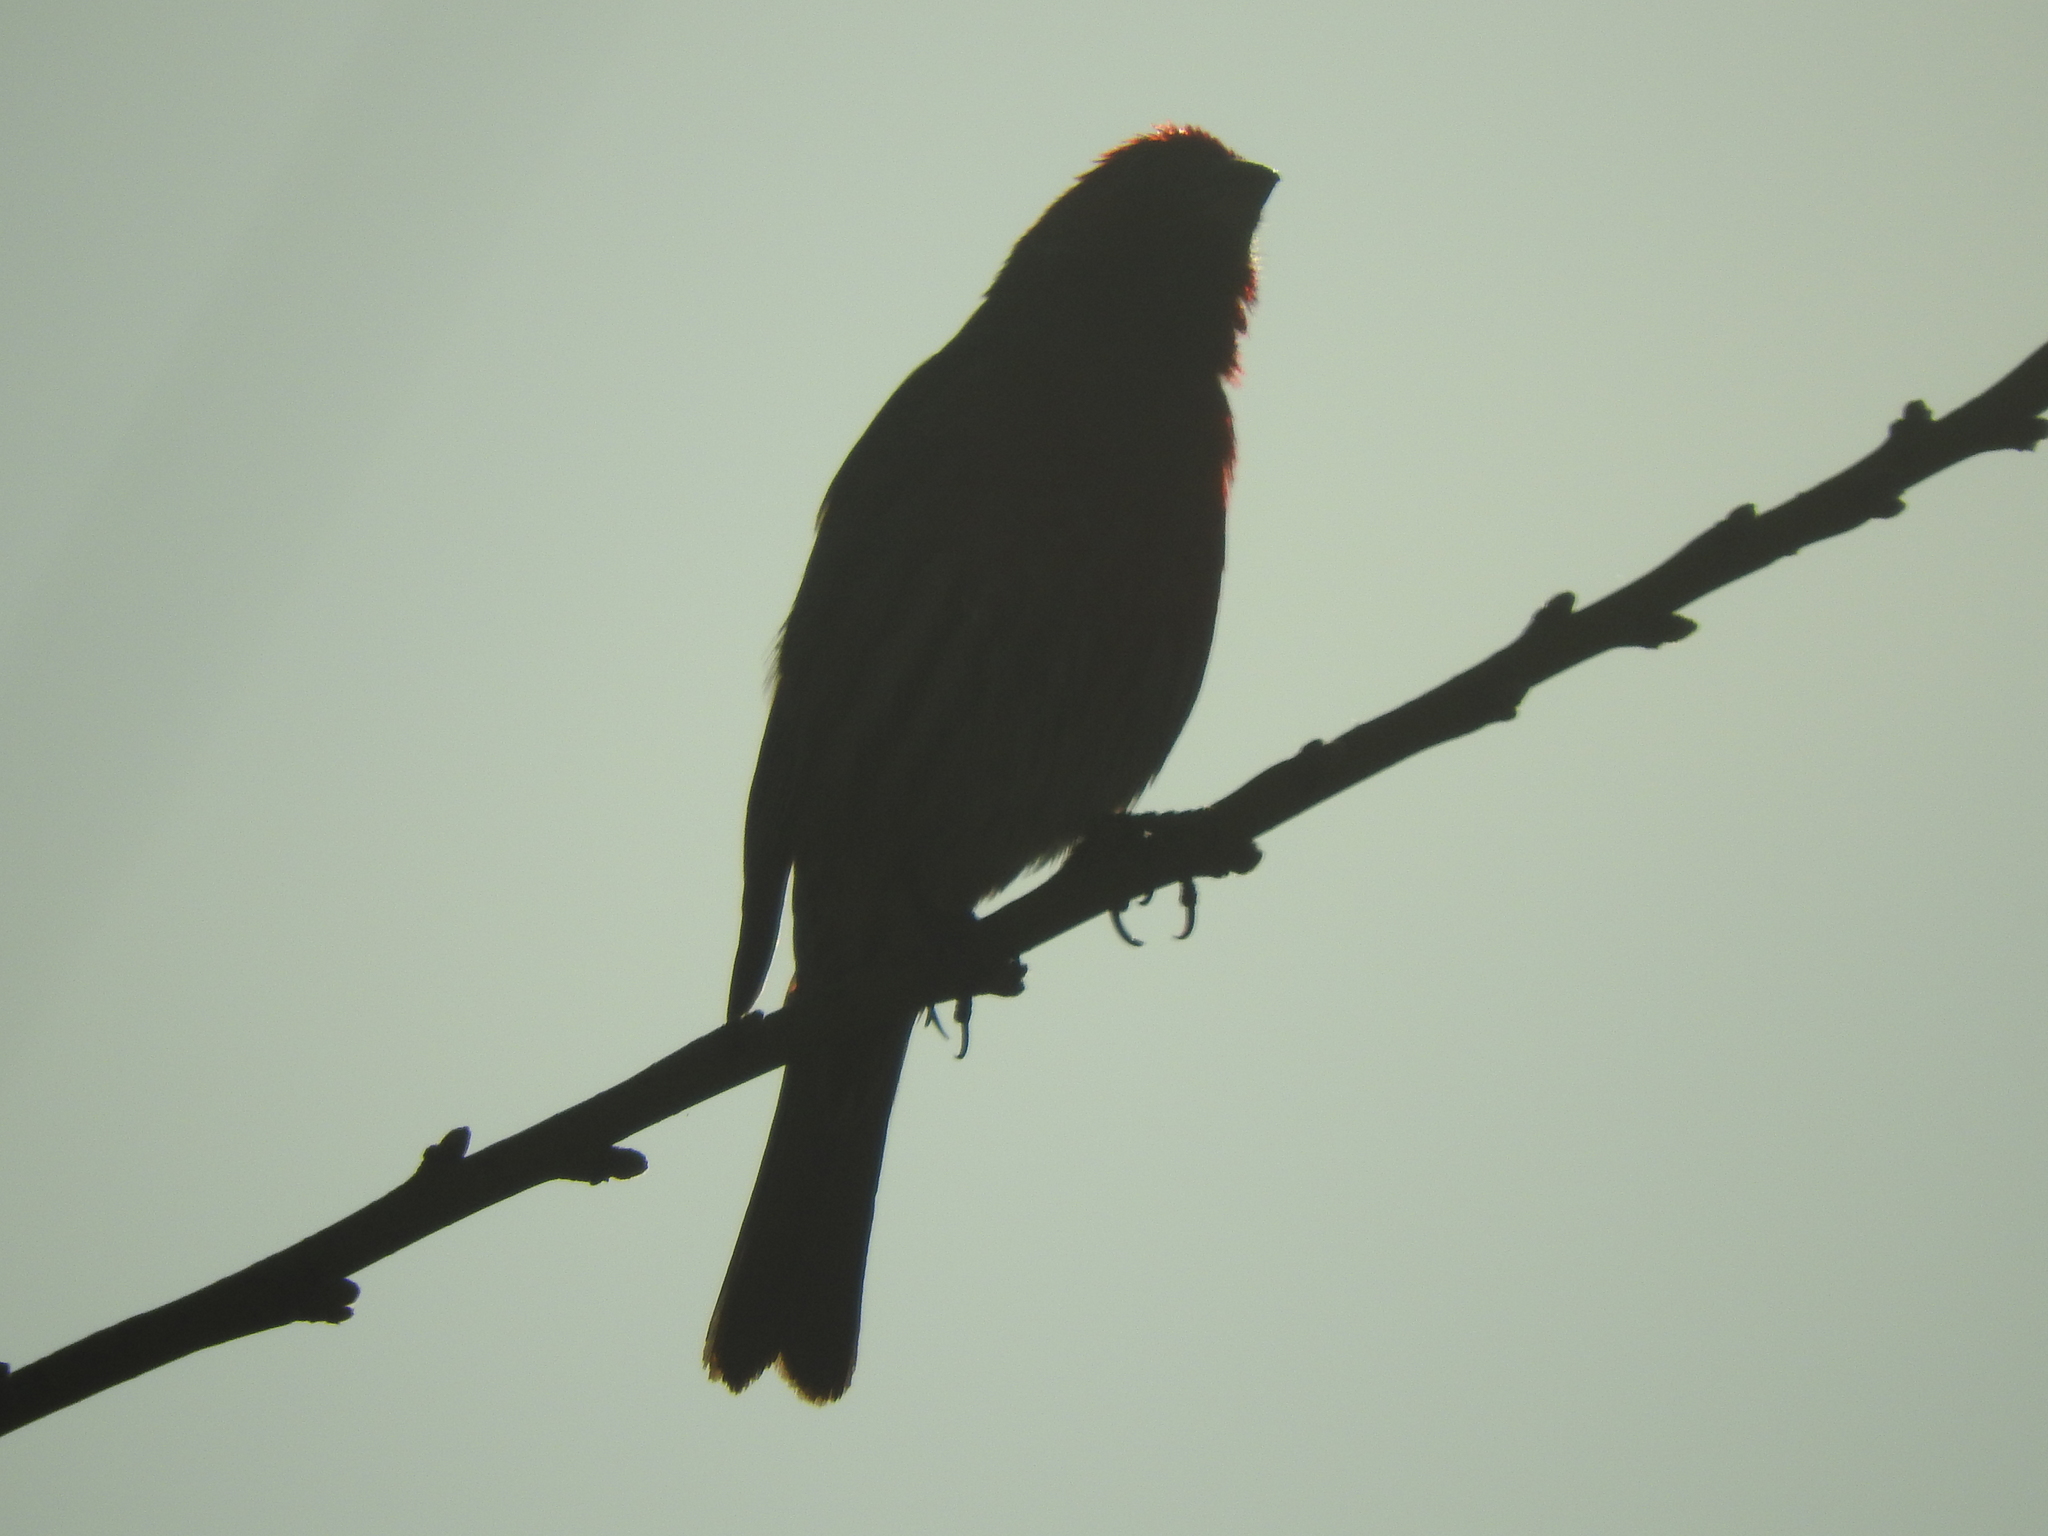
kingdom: Animalia
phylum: Chordata
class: Aves
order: Passeriformes
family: Fringillidae
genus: Haemorhous
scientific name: Haemorhous mexicanus
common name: House finch
